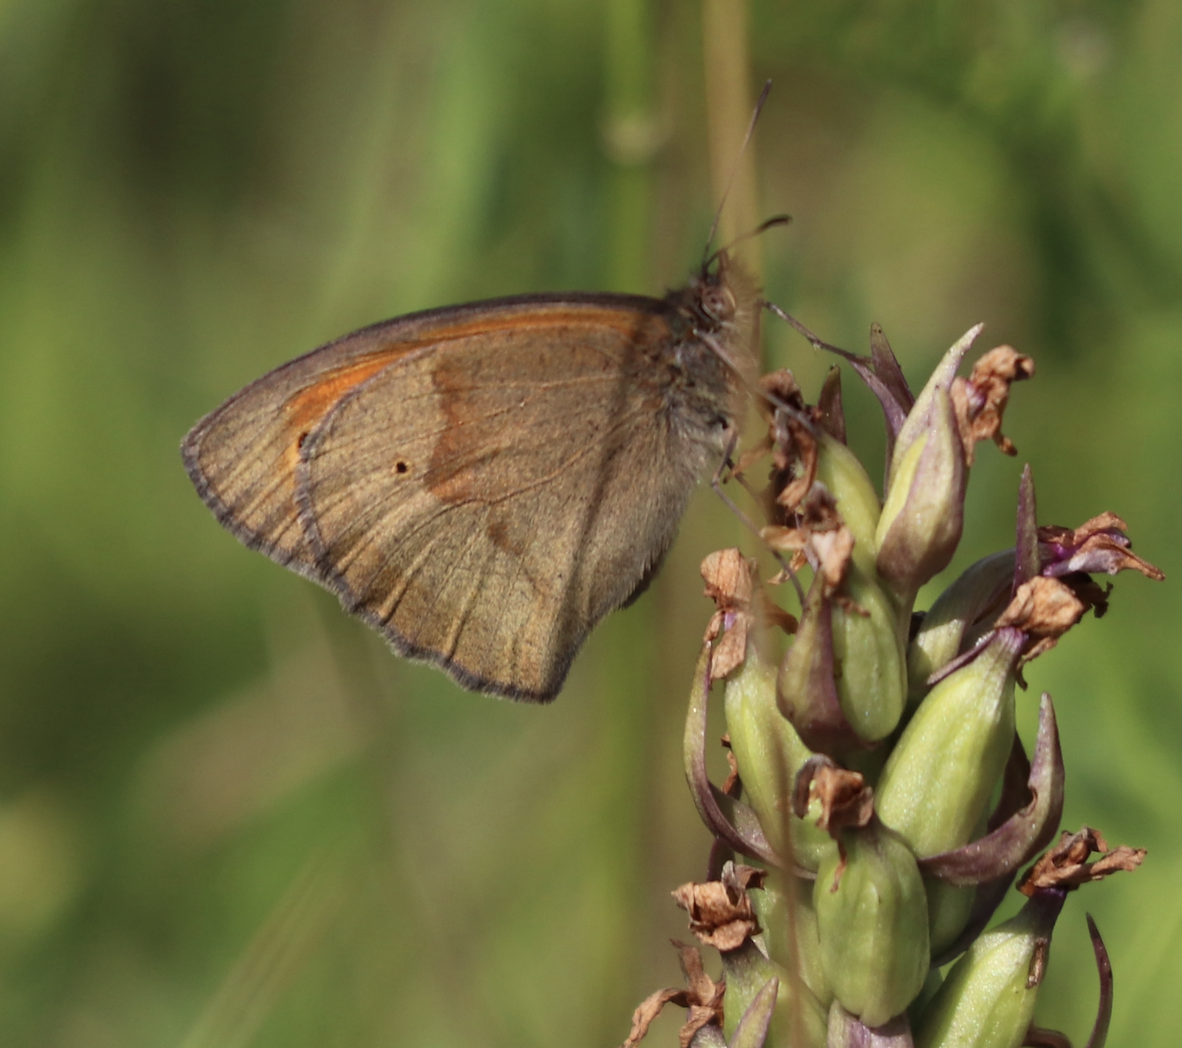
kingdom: Animalia
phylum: Arthropoda
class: Insecta
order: Lepidoptera
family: Nymphalidae
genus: Maniola
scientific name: Maniola jurtina
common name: Meadow brown
